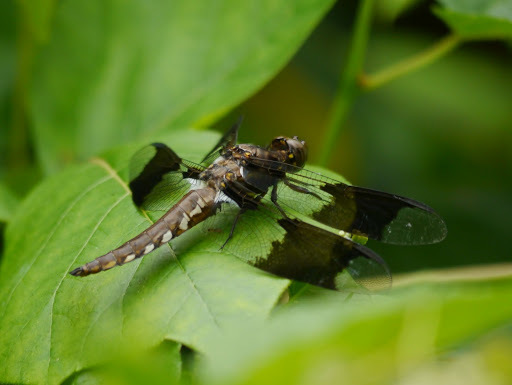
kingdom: Animalia
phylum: Arthropoda
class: Insecta
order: Odonata
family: Libellulidae
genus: Plathemis
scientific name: Plathemis lydia
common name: Common whitetail
